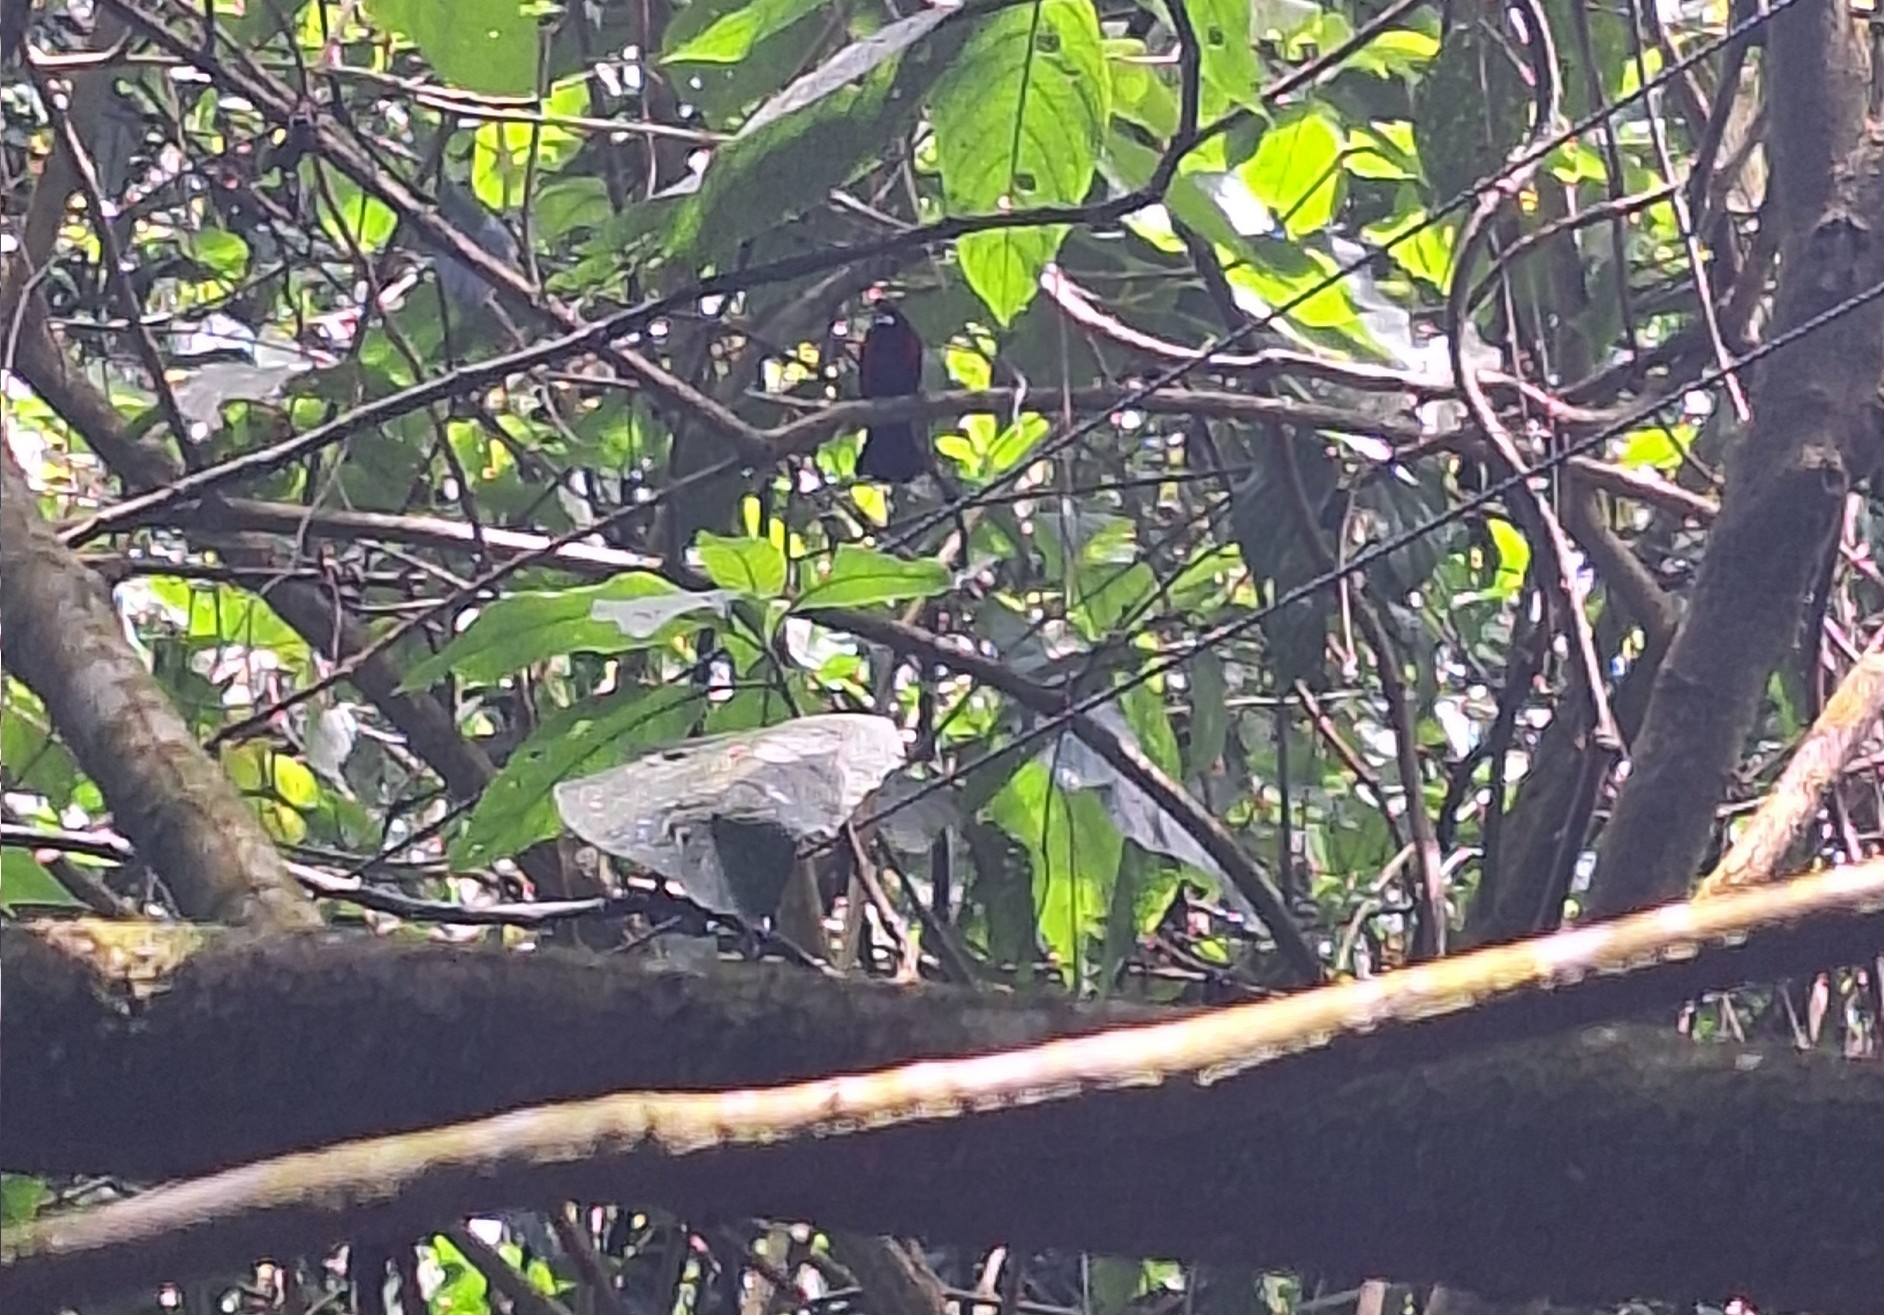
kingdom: Animalia
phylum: Chordata
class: Aves
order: Passeriformes
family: Thraupidae
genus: Ramphocelus
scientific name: Ramphocelus dimidiatus
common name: Crimson-backed tanager
